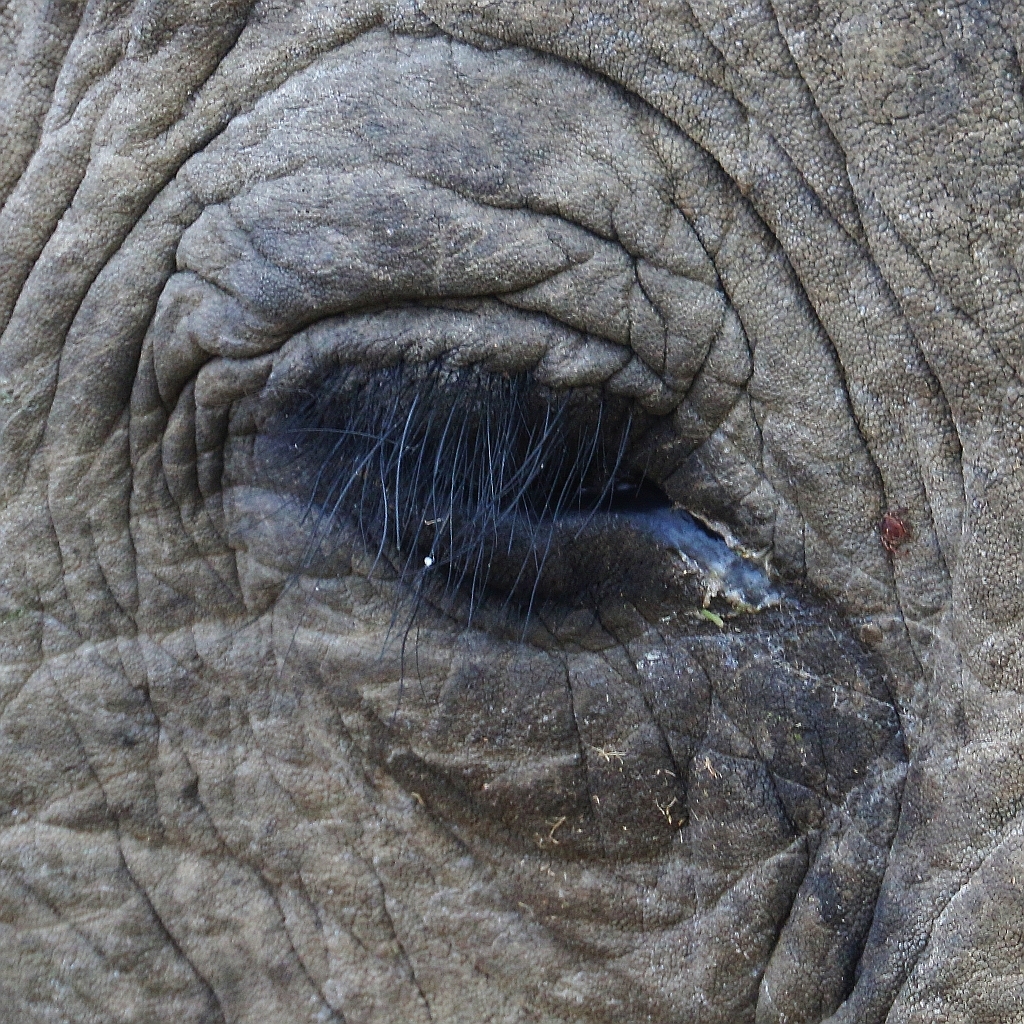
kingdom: Animalia
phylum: Chordata
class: Mammalia
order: Proboscidea
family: Elephantidae
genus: Loxodonta
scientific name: Loxodonta africana
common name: African elephant
